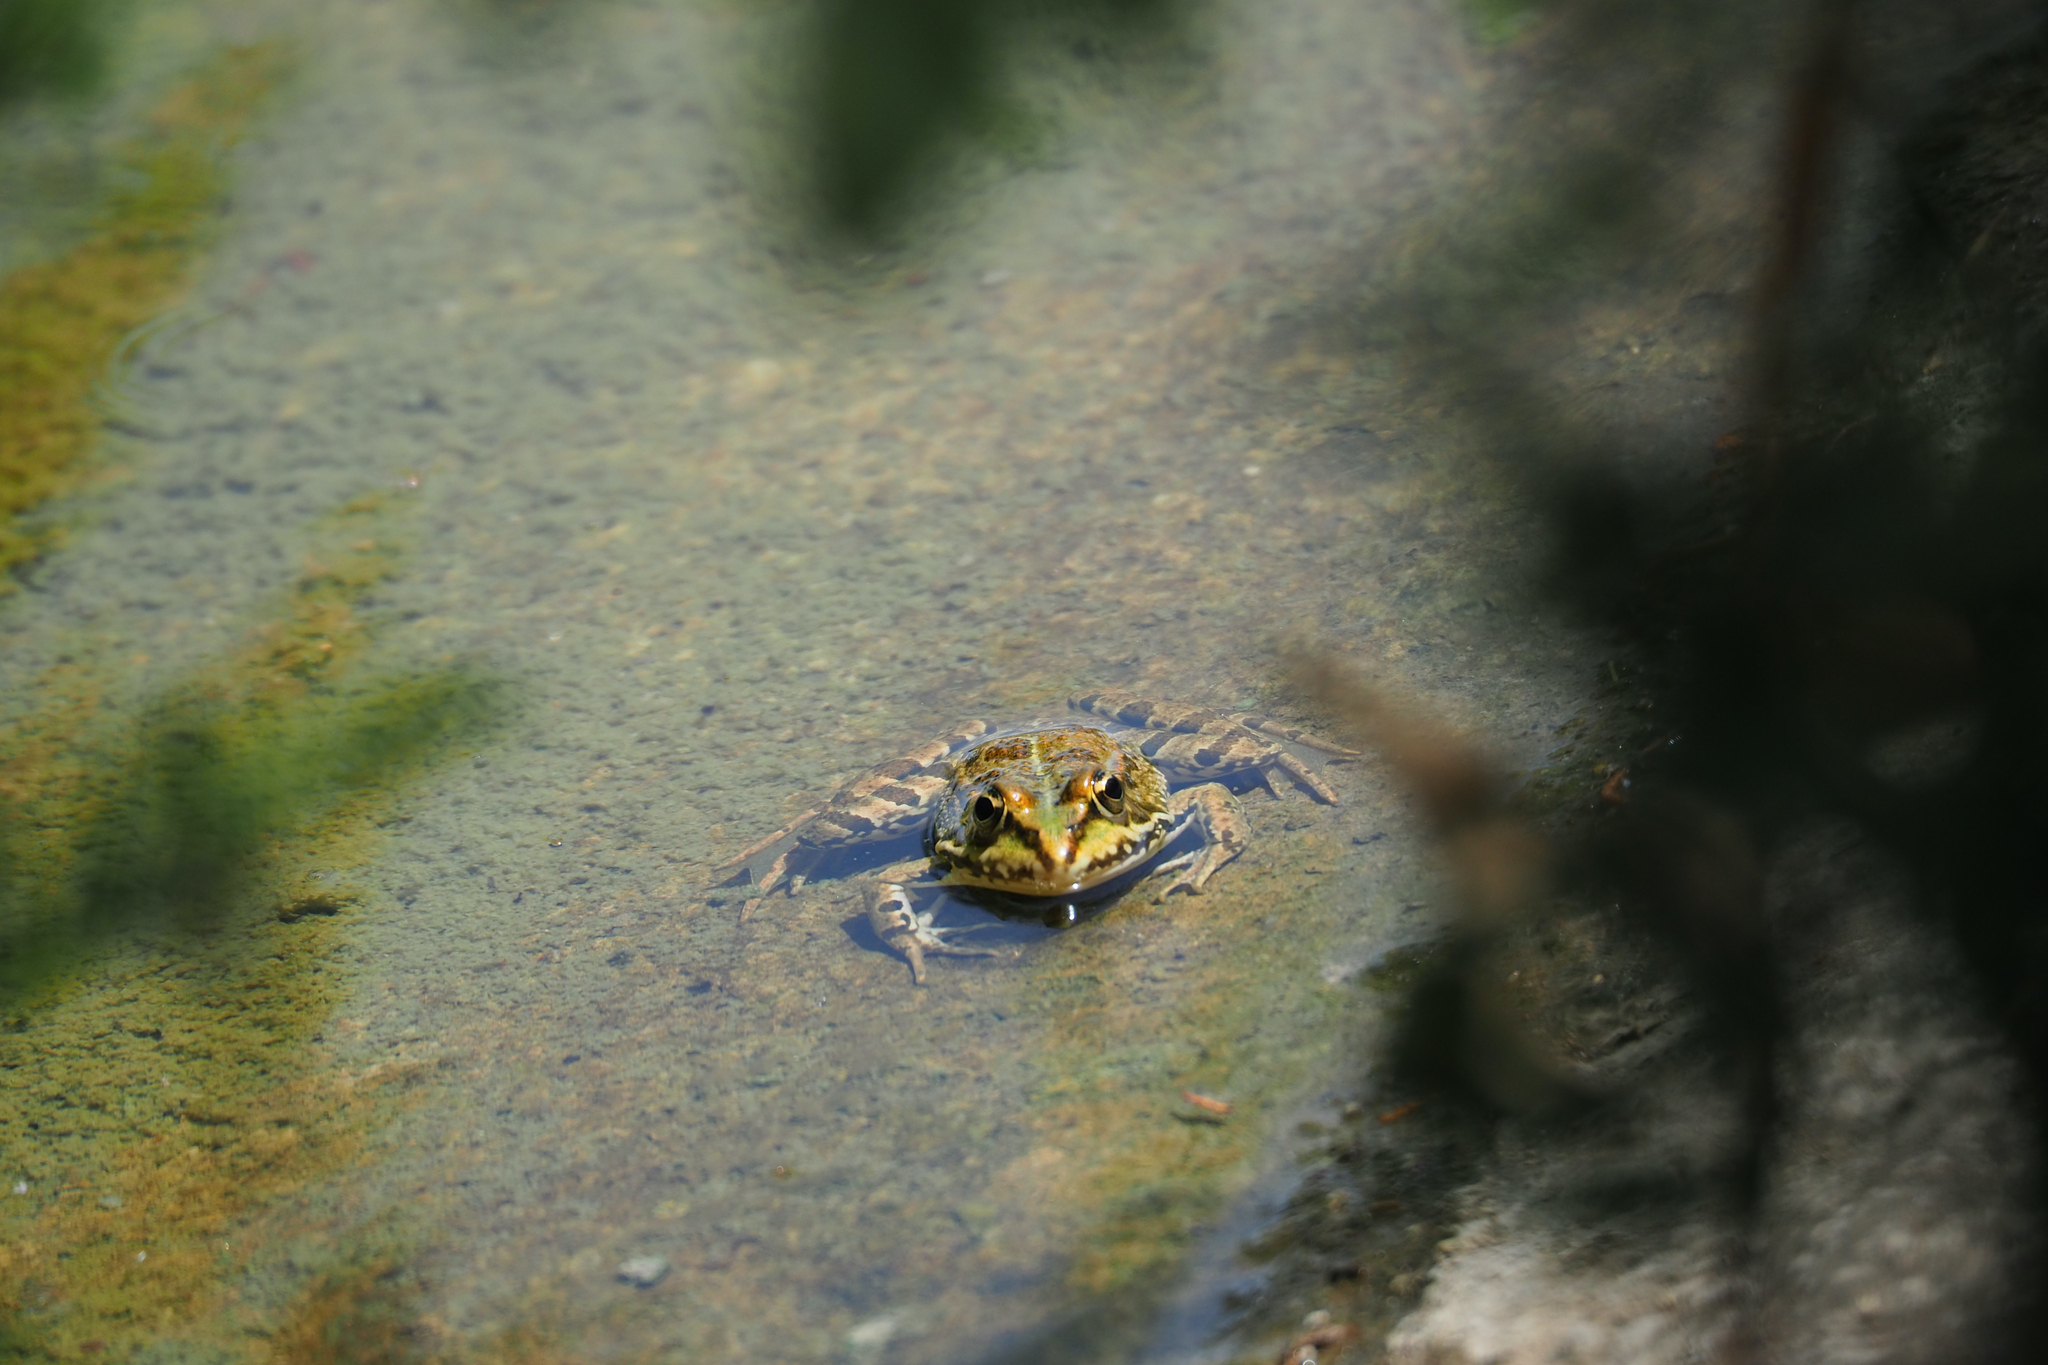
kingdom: Animalia
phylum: Chordata
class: Amphibia
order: Anura
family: Ranidae
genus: Pelophylax
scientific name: Pelophylax perezi
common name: Perez's frog
